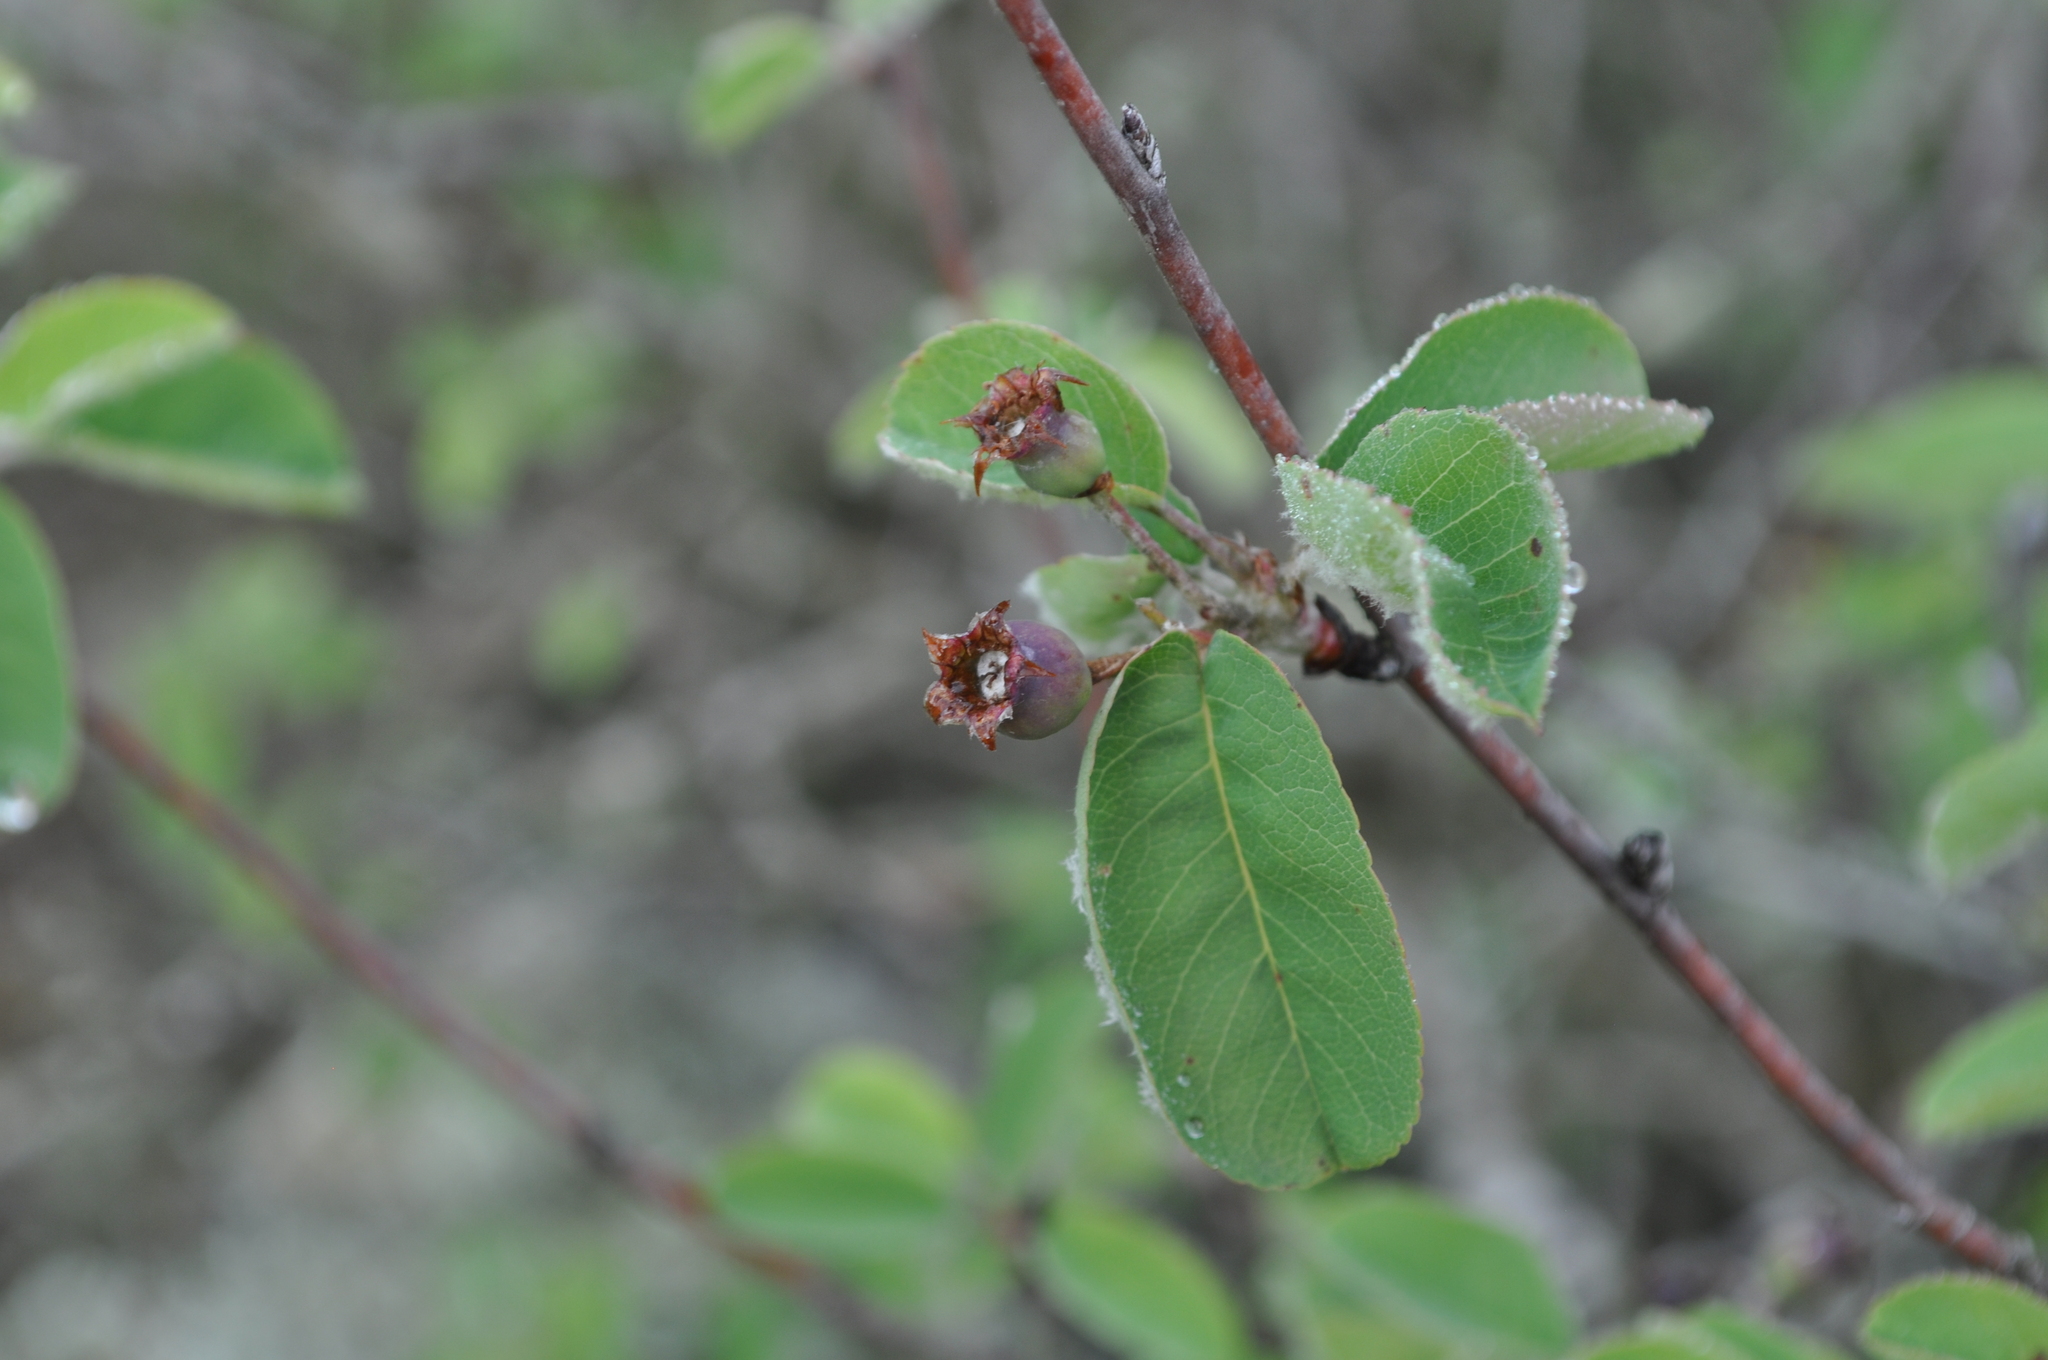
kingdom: Plantae
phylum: Tracheophyta
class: Magnoliopsida
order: Rosales
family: Rosaceae
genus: Amelanchier
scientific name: Amelanchier ovalis
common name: Serviceberry
